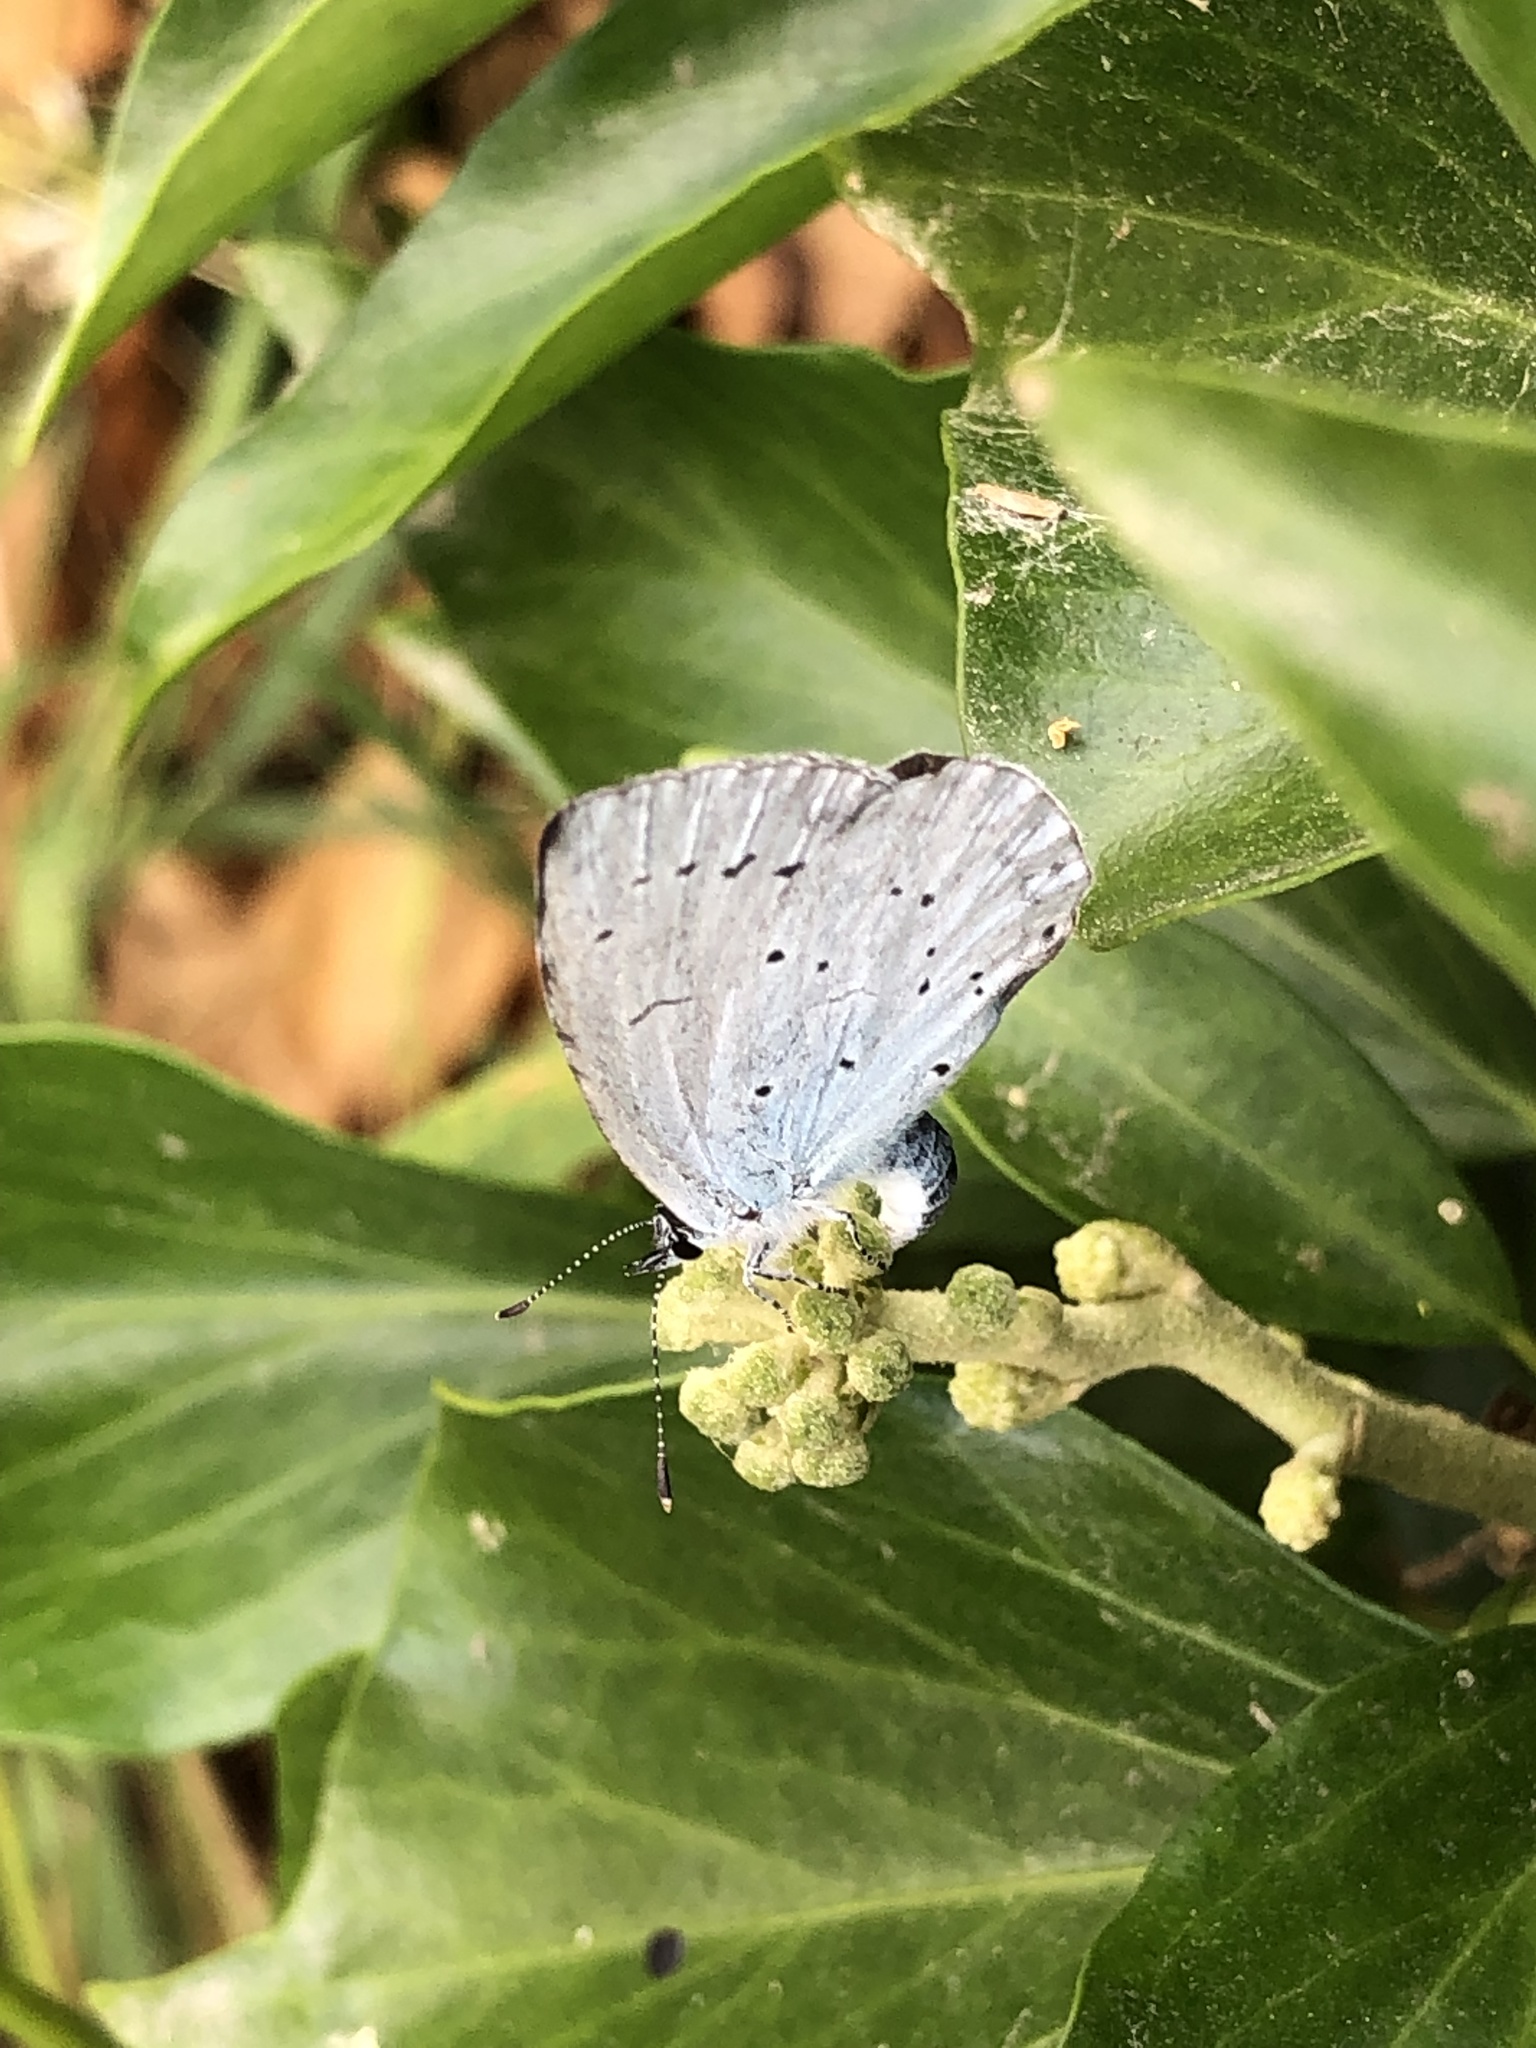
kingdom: Animalia
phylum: Arthropoda
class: Insecta
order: Lepidoptera
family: Lycaenidae
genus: Celastrina
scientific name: Celastrina argiolus
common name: Holly blue
